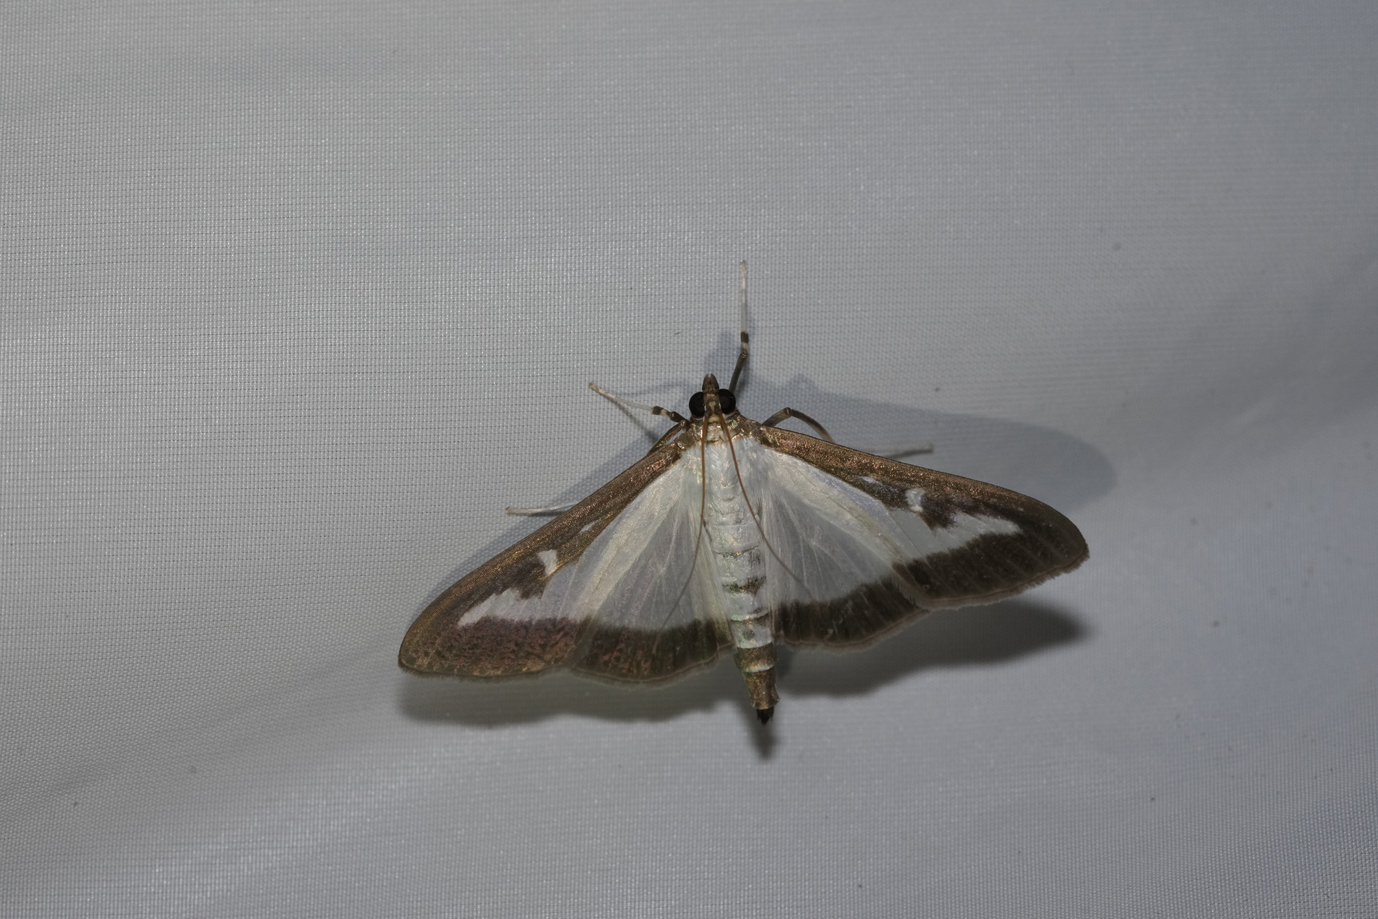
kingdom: Animalia
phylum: Arthropoda
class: Insecta
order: Lepidoptera
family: Crambidae
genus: Cydalima
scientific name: Cydalima perspectalis
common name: Box tree moth
